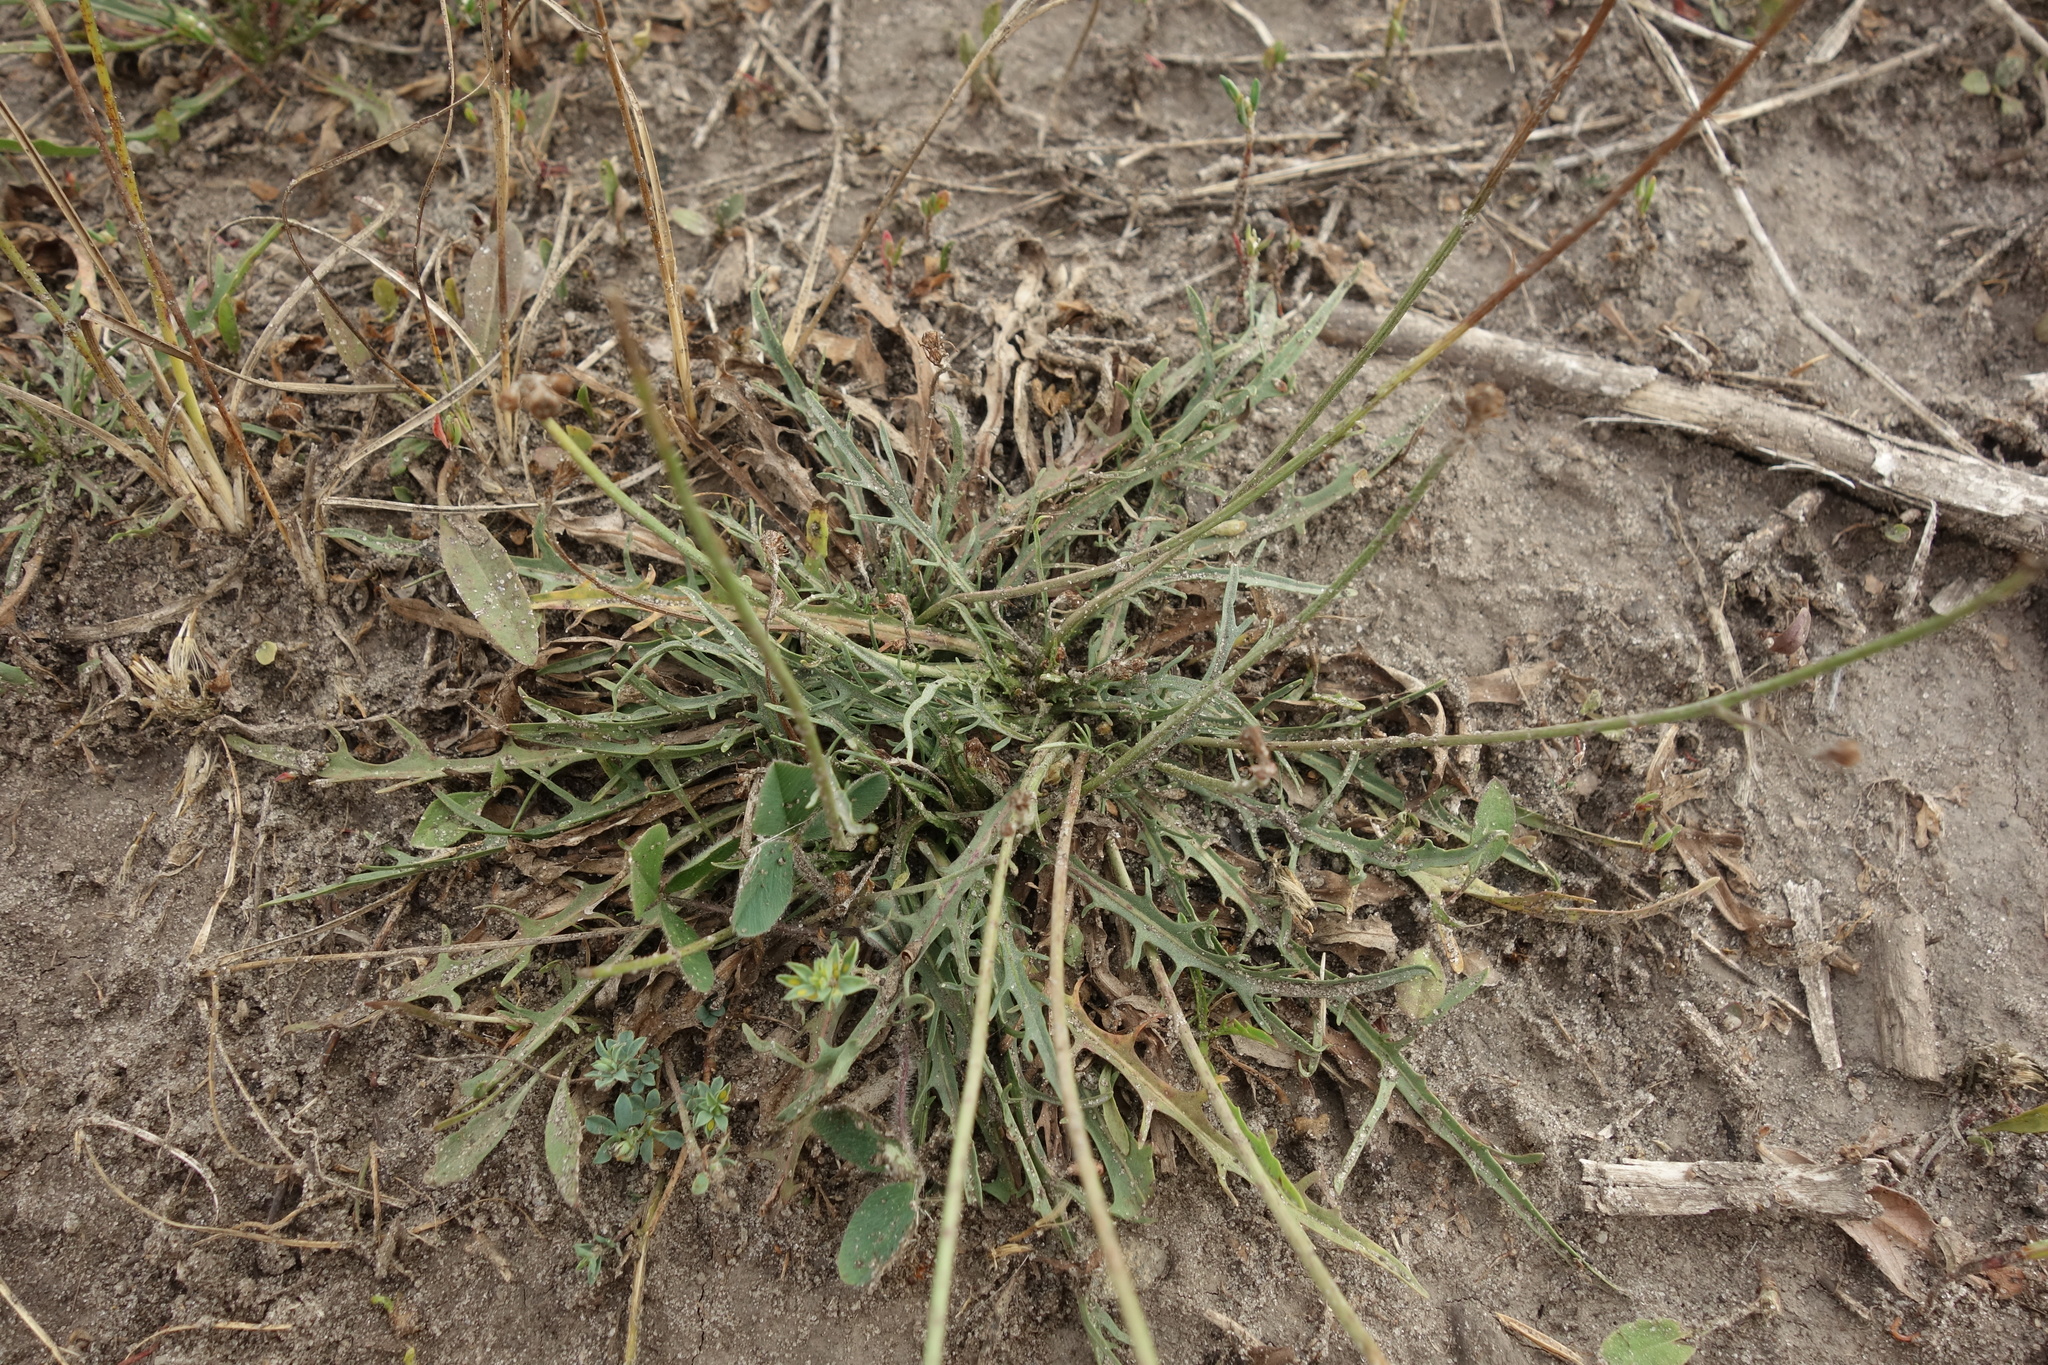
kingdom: Plantae
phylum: Tracheophyta
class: Magnoliopsida
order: Asterales
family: Asteraceae
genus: Scorzoneroides
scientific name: Scorzoneroides autumnalis
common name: Autumn hawkbit
